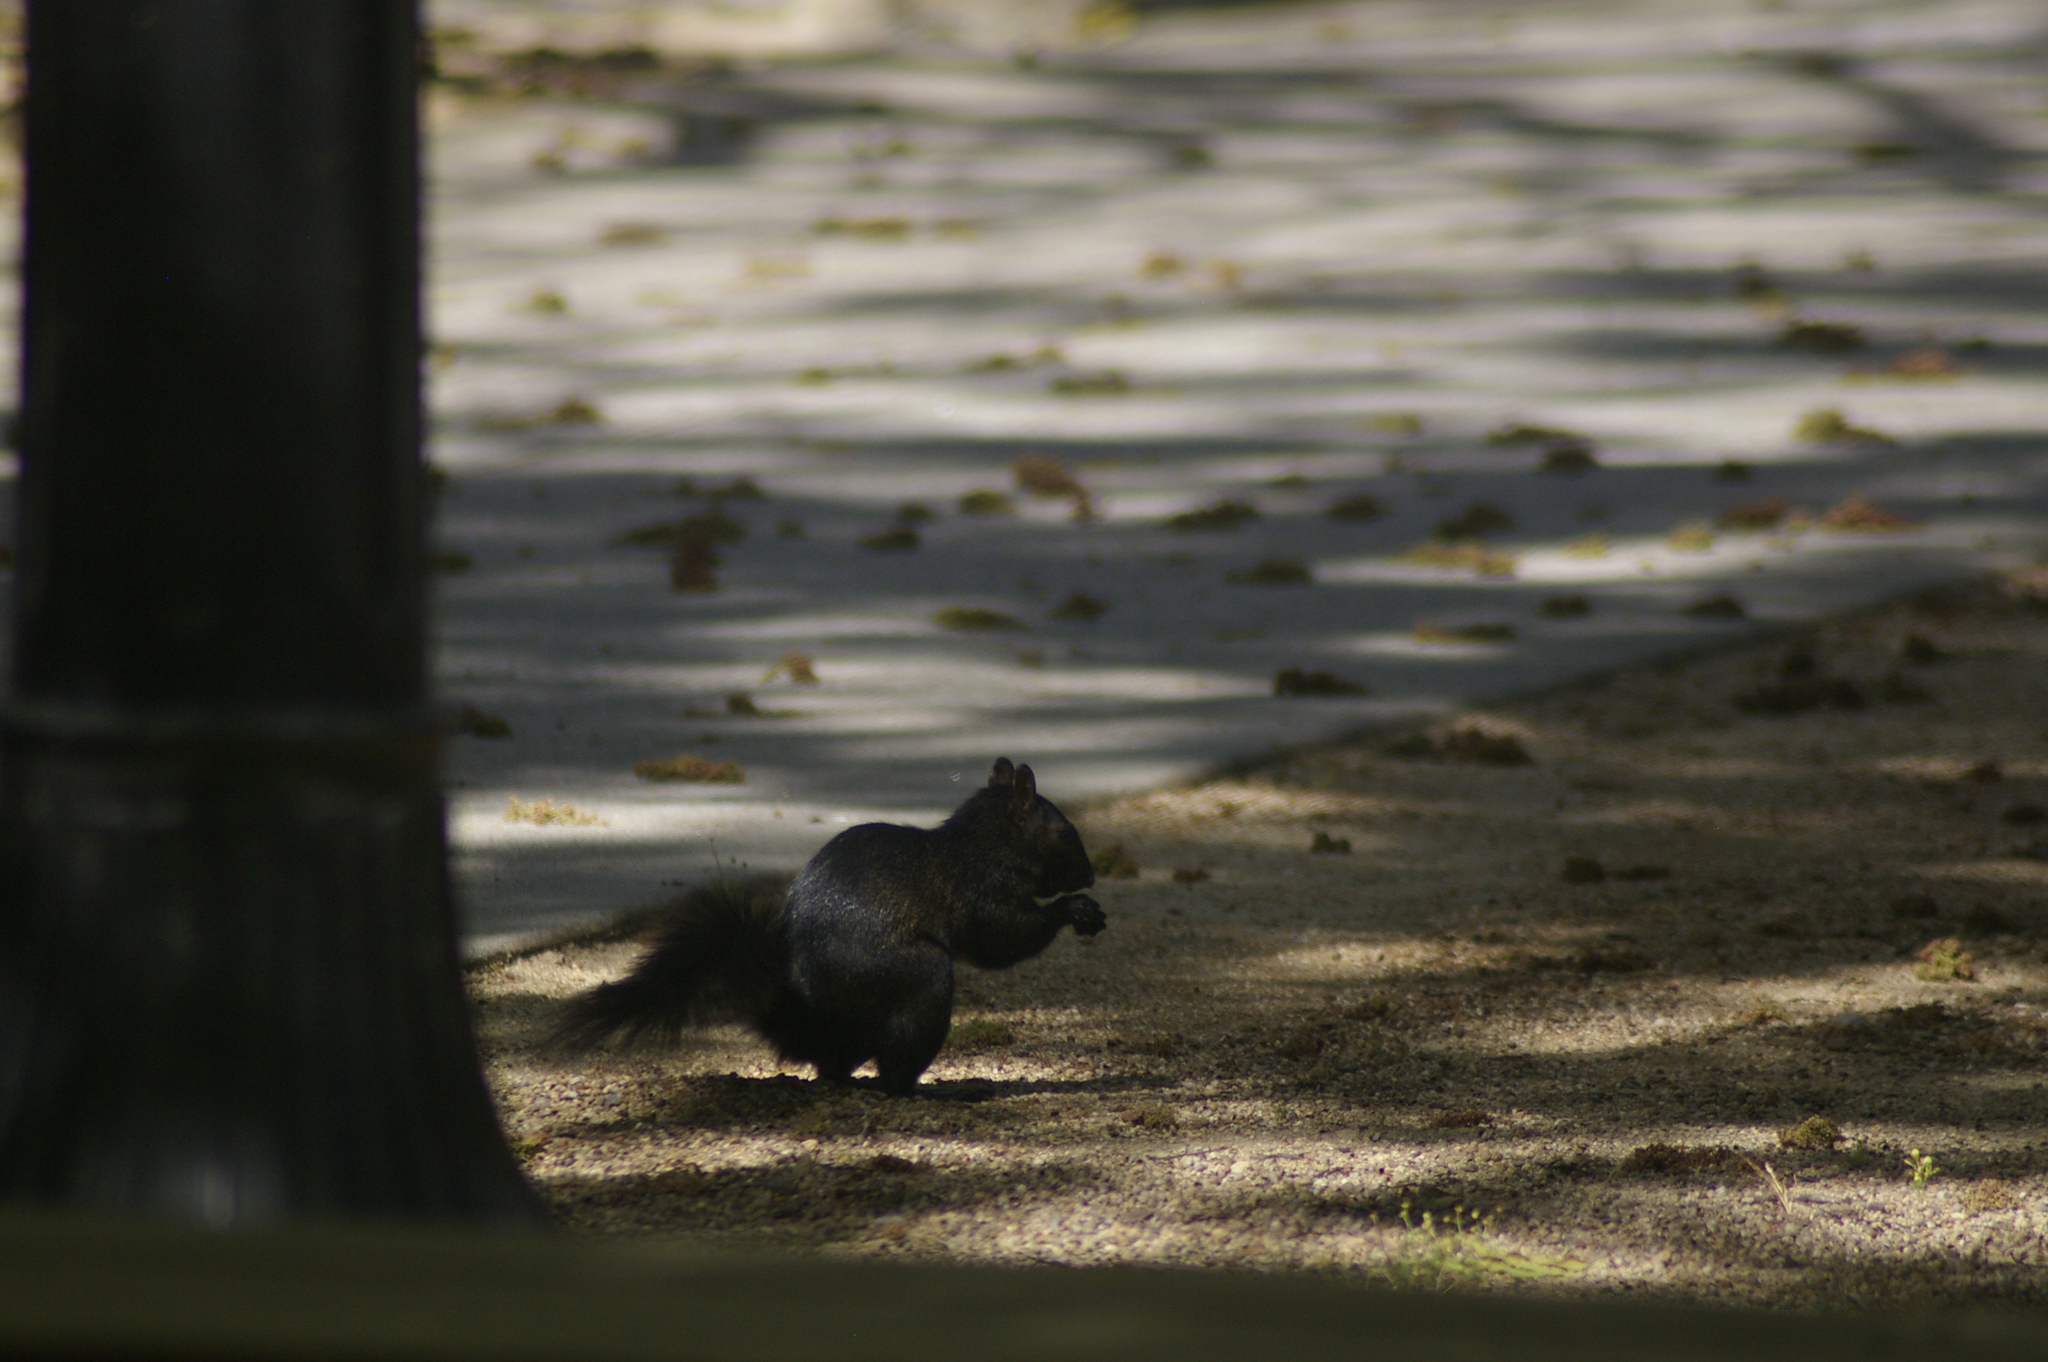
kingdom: Animalia
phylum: Chordata
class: Mammalia
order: Rodentia
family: Sciuridae
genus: Sciurus
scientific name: Sciurus carolinensis
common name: Eastern gray squirrel
